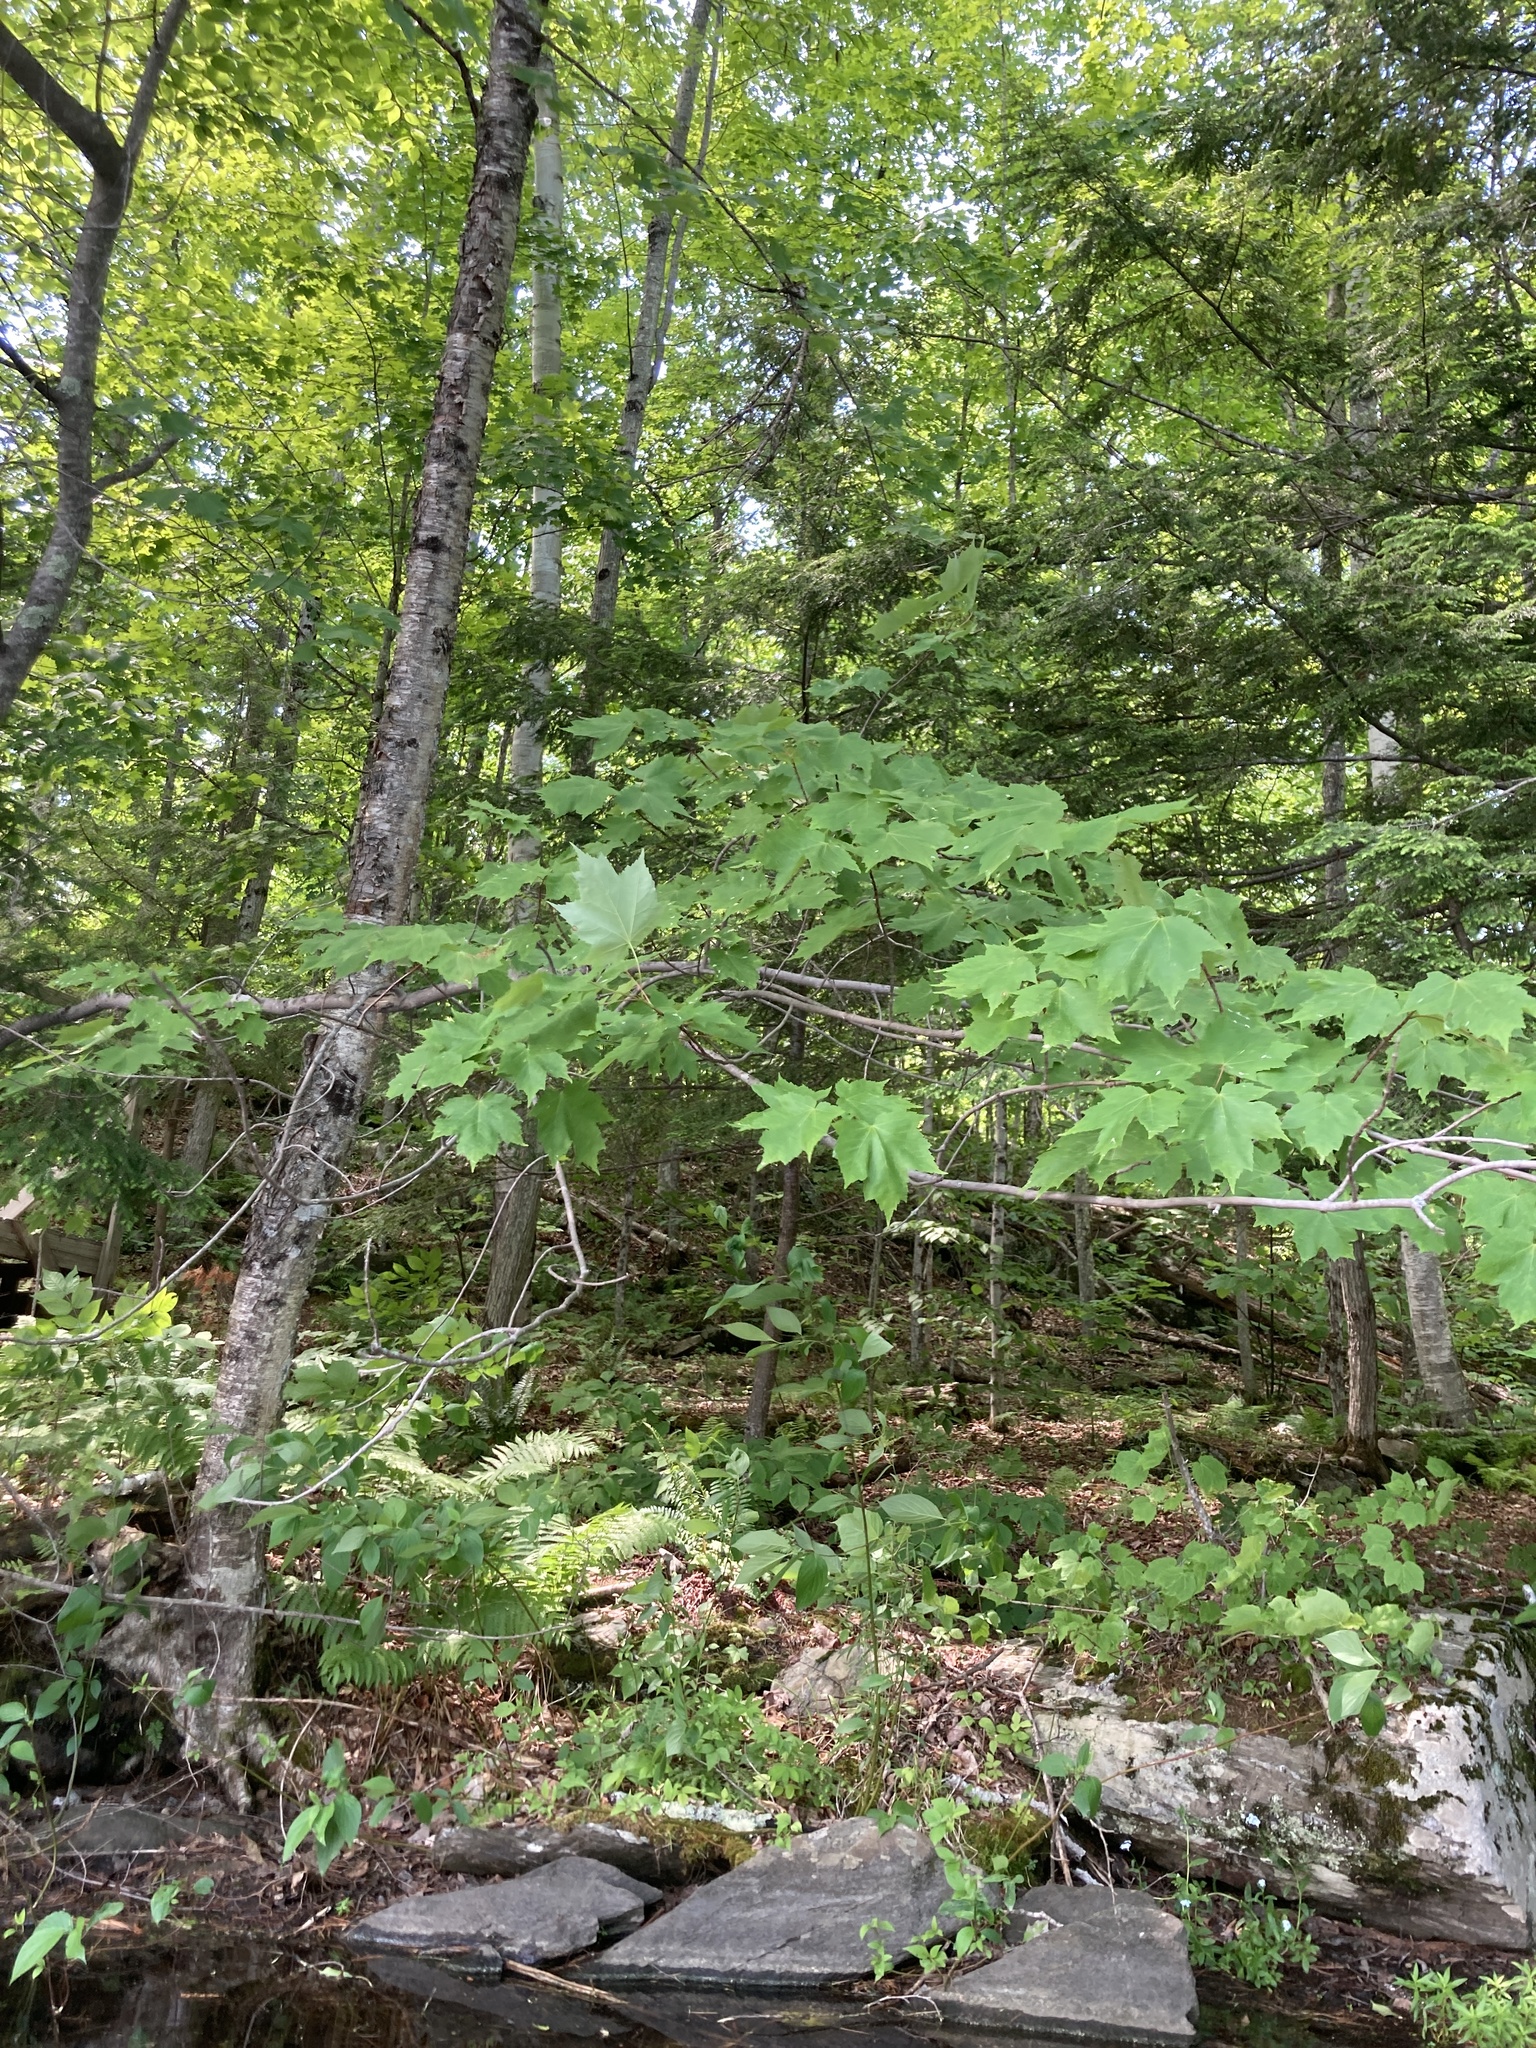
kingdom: Plantae
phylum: Tracheophyta
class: Magnoliopsida
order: Sapindales
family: Sapindaceae
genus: Acer
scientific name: Acer rubrum
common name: Red maple
